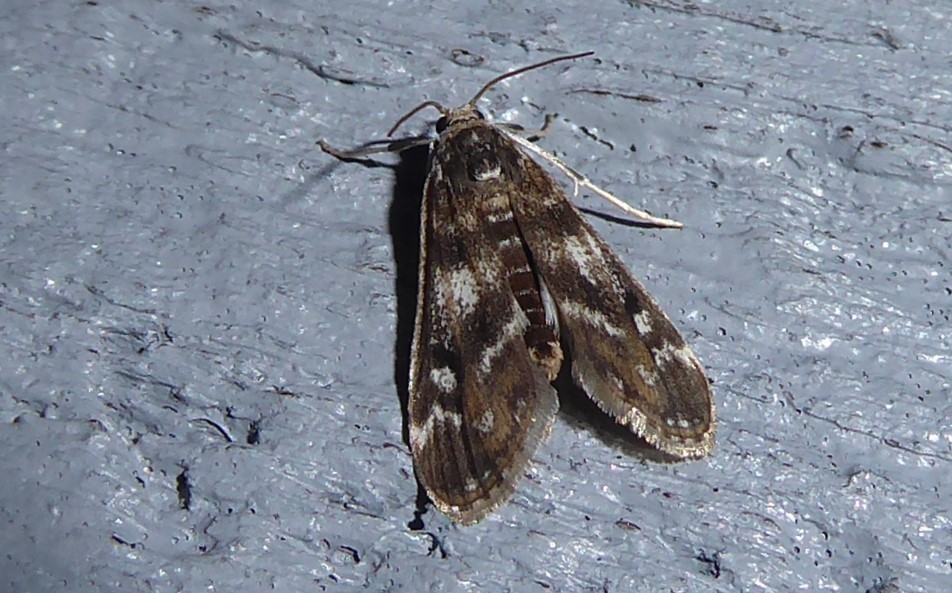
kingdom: Animalia
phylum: Arthropoda
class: Insecta
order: Lepidoptera
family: Crambidae
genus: Hygraula
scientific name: Hygraula nitens
